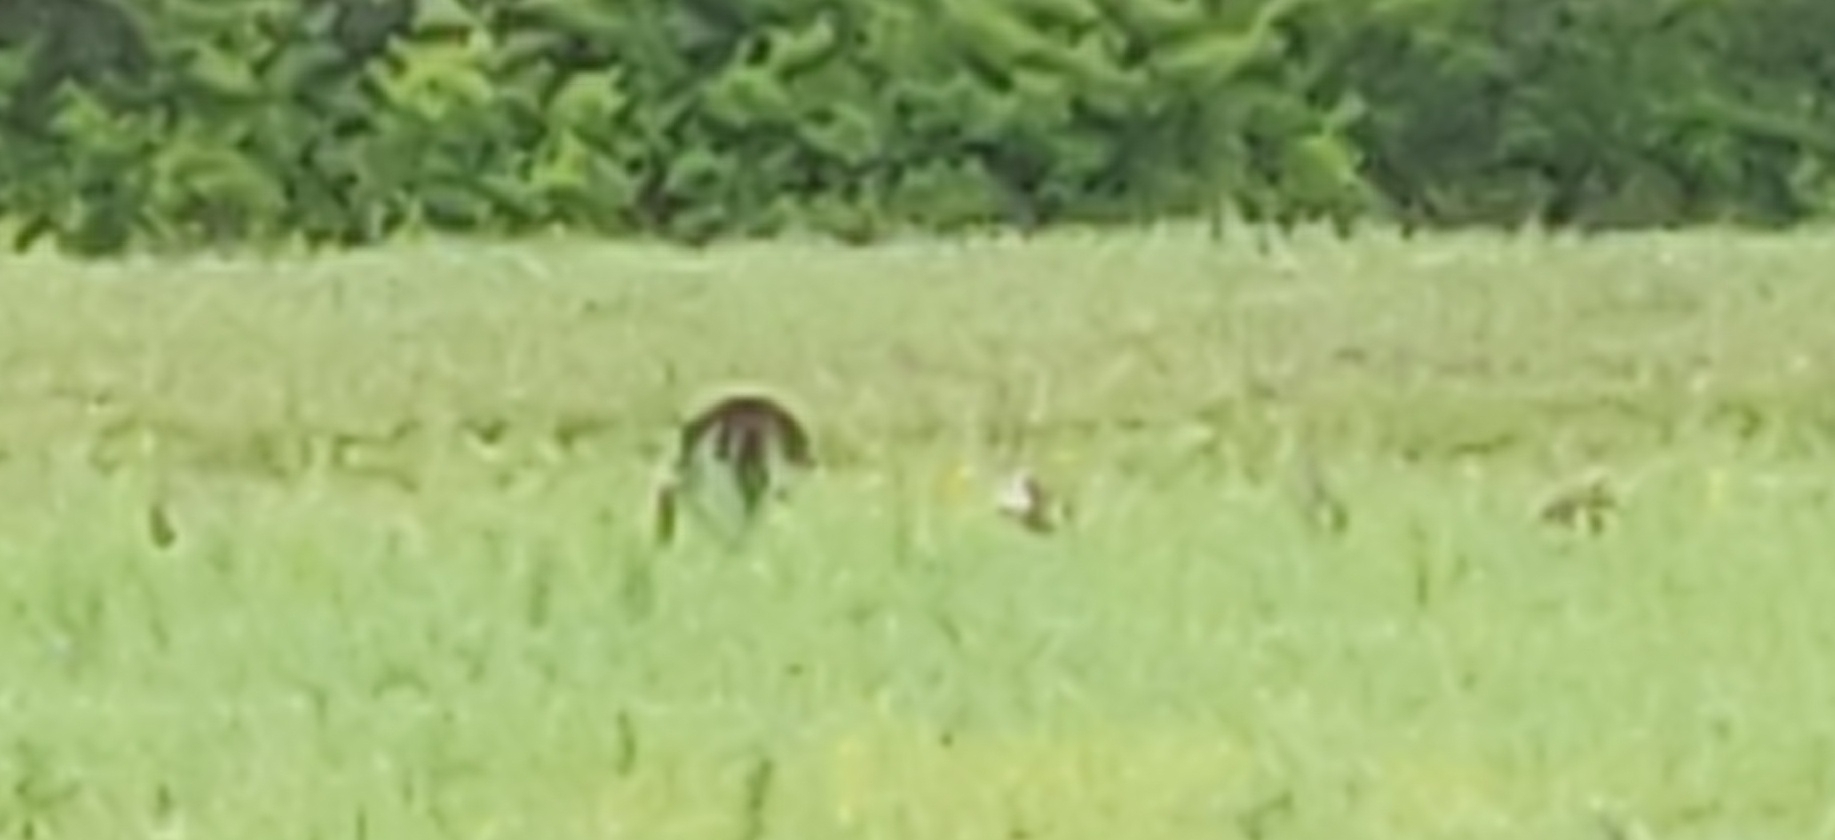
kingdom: Animalia
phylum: Chordata
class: Aves
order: Galliformes
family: Phasianidae
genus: Meleagris
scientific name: Meleagris gallopavo
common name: Wild turkey
